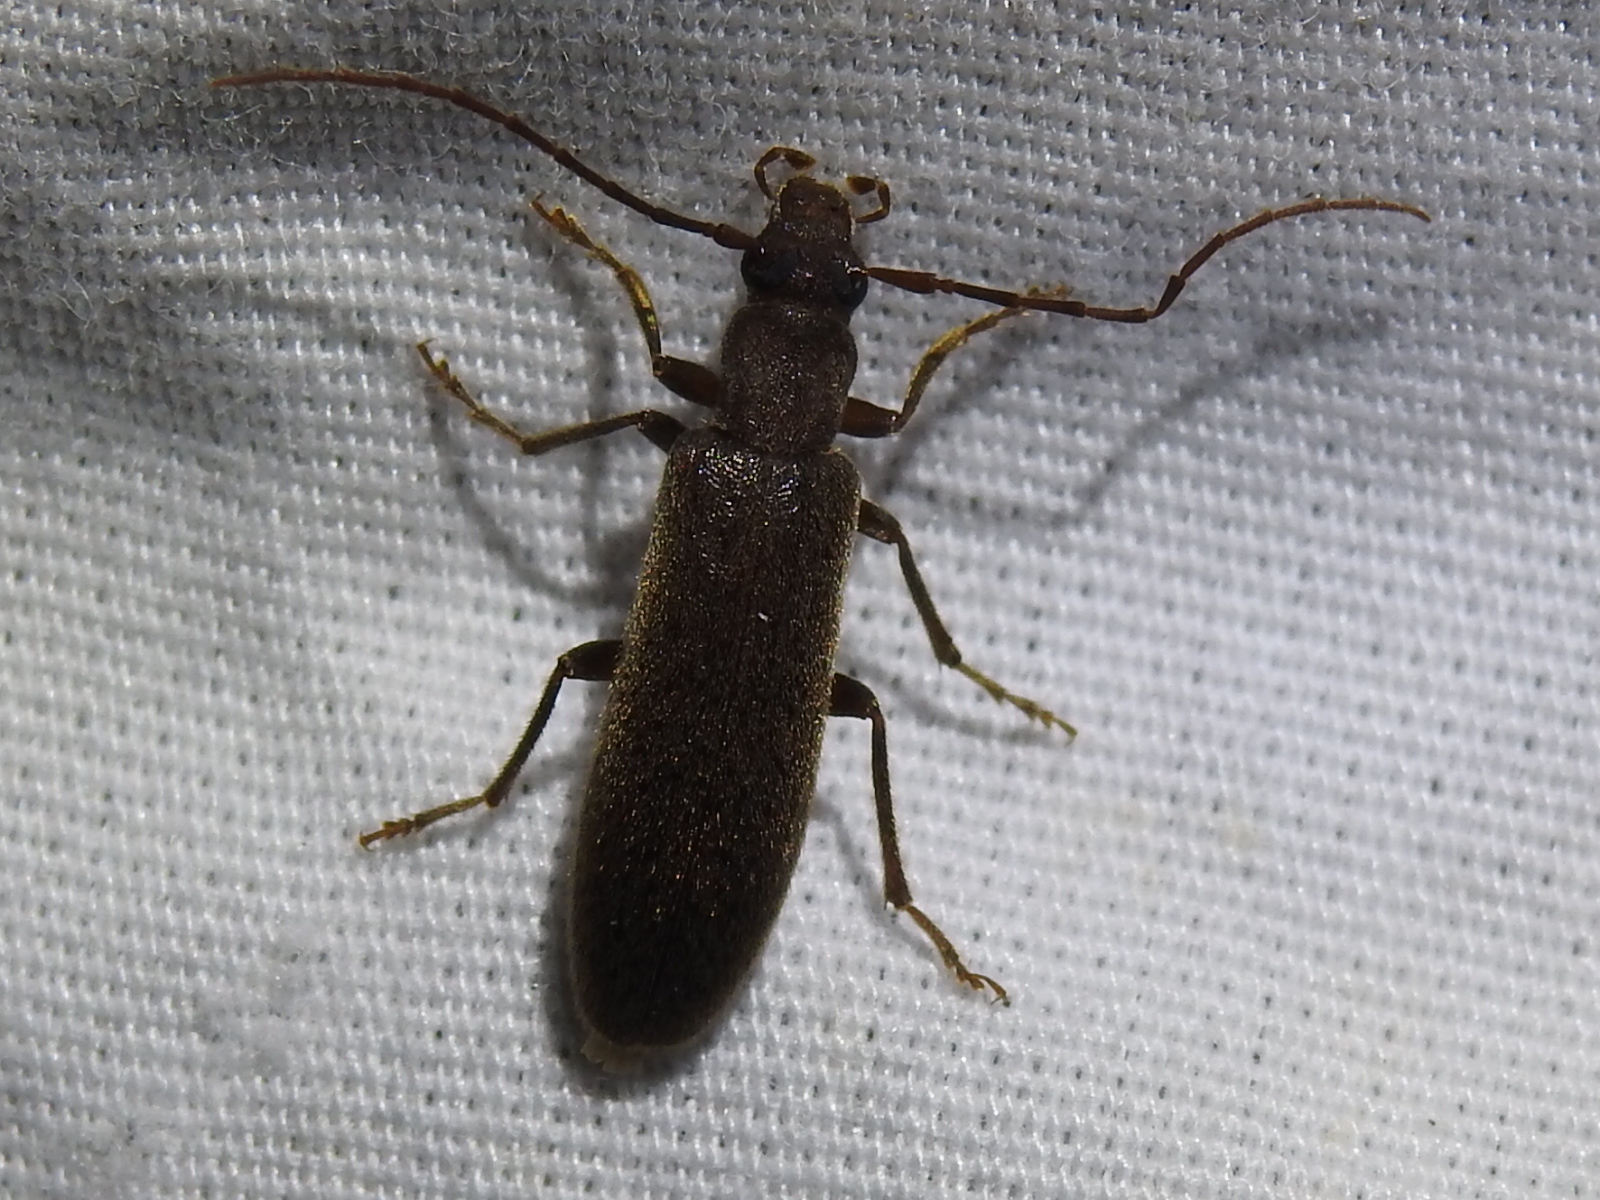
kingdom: Animalia
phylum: Arthropoda
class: Insecta
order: Coleoptera
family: Oedemeridae
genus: Sparedrus
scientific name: Sparedrus aspersus
